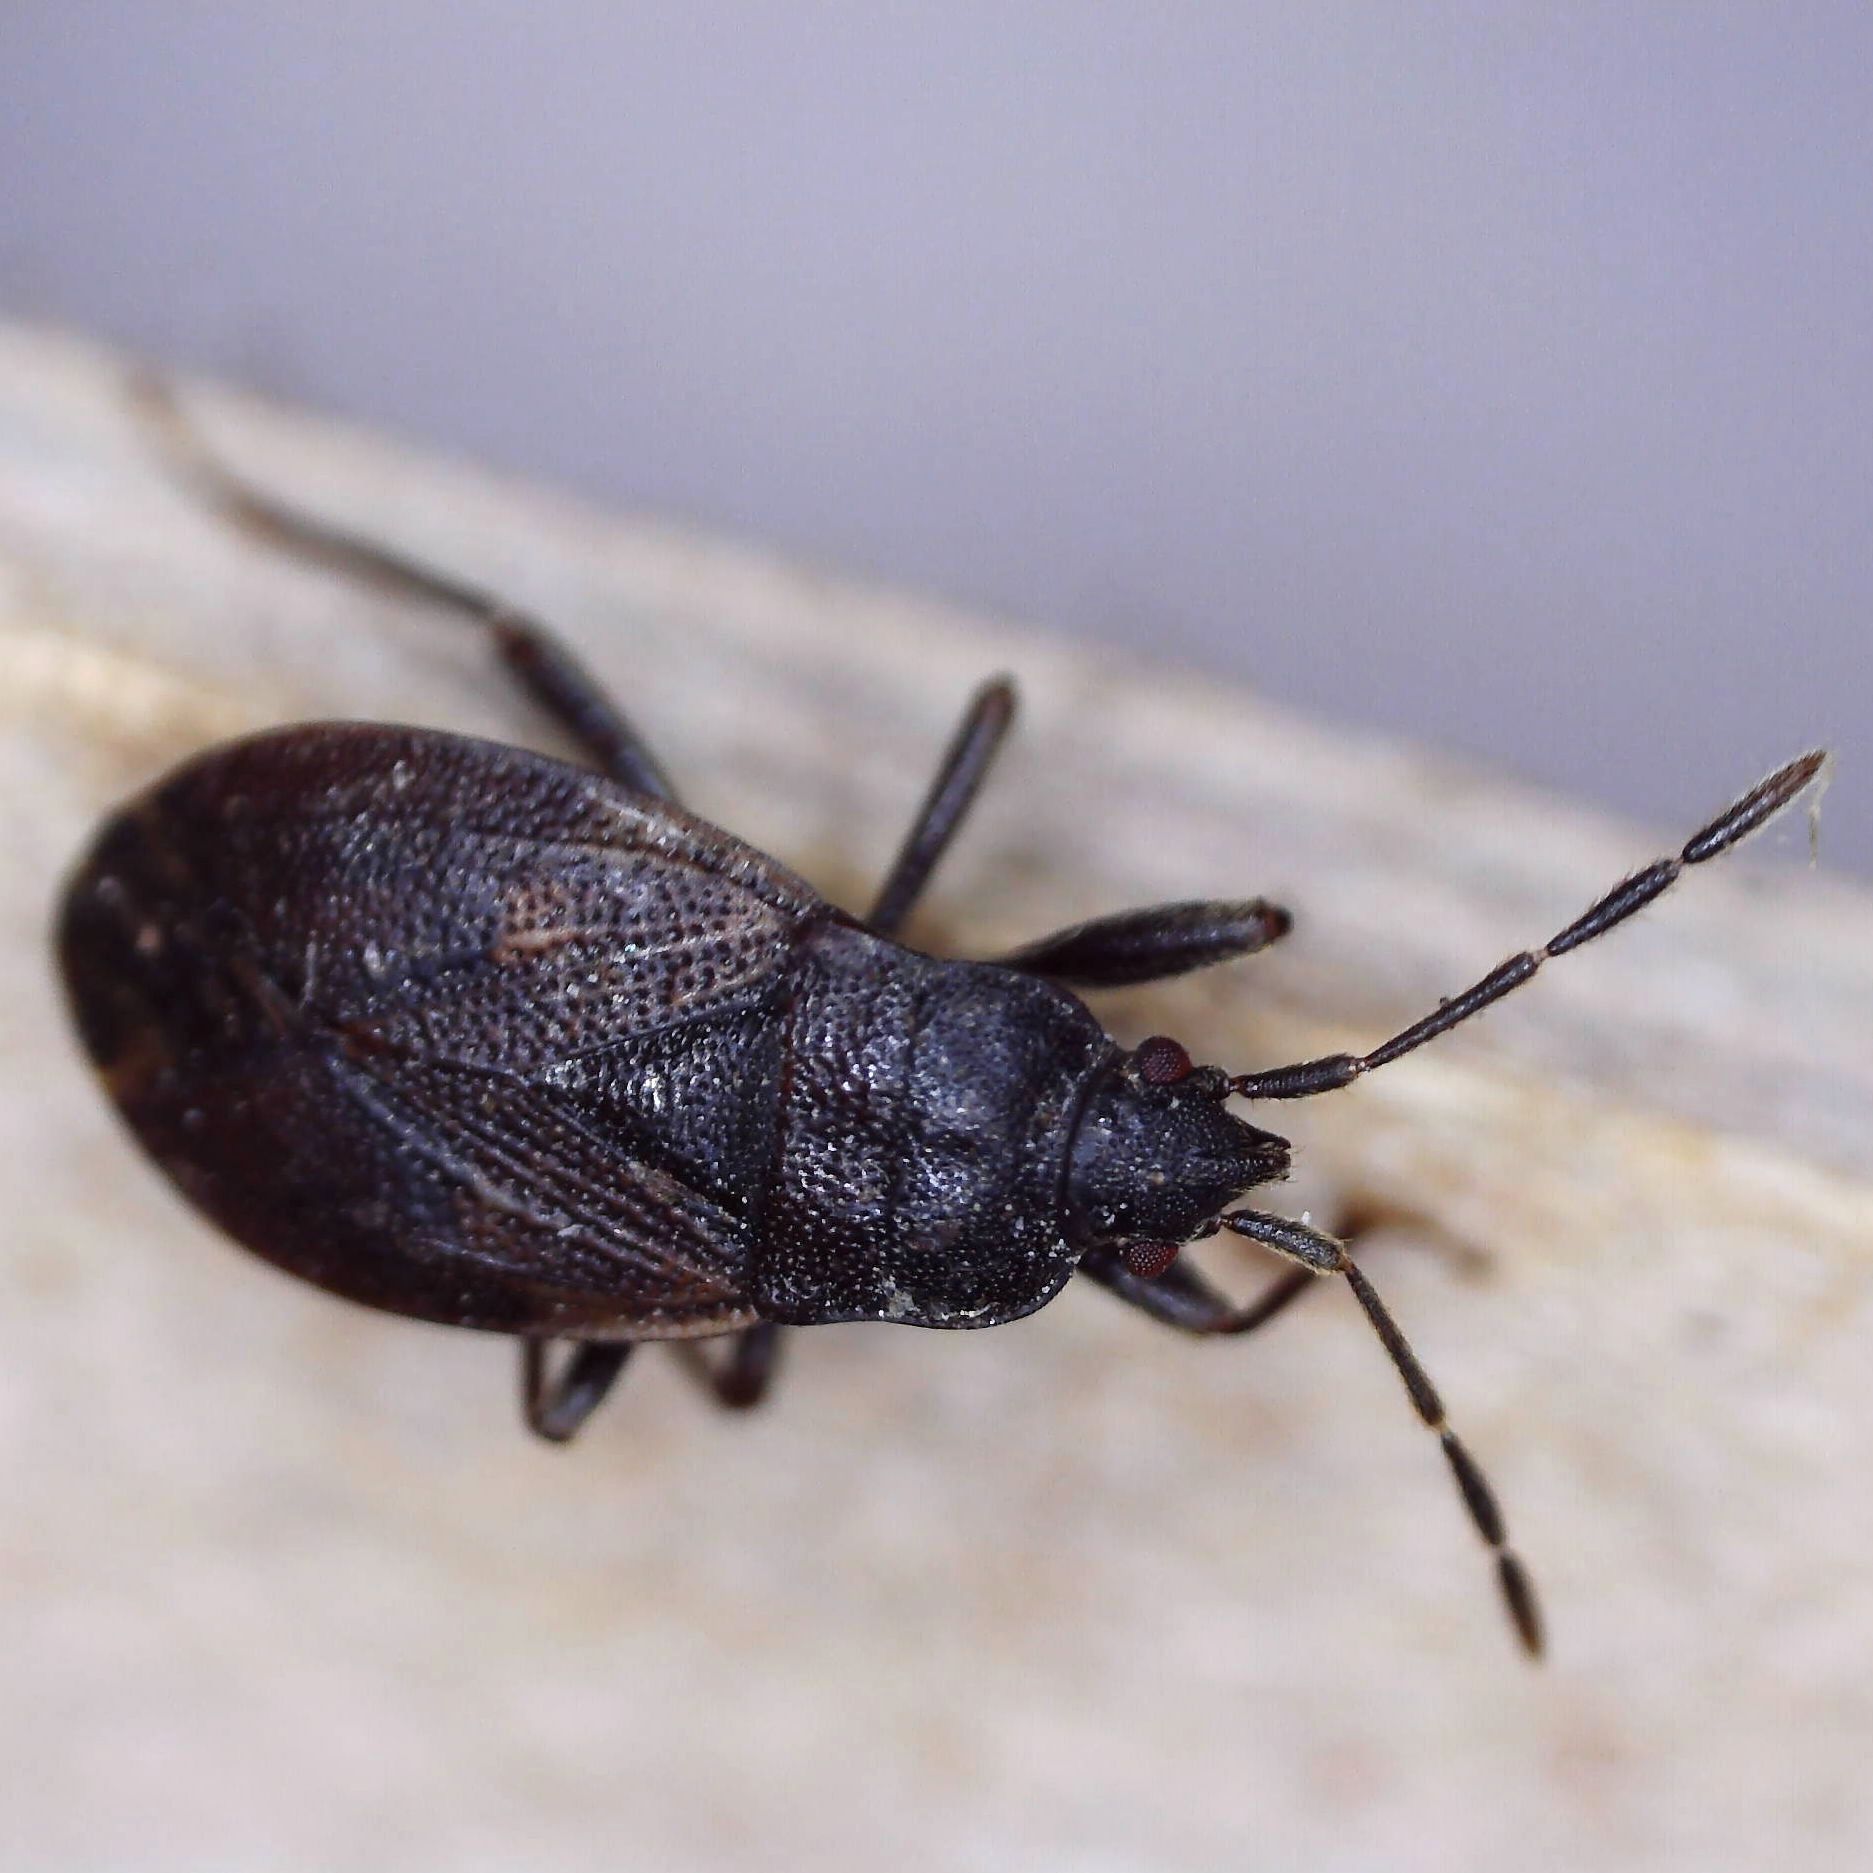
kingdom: Animalia
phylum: Arthropoda
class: Insecta
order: Hemiptera
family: Rhyparochromidae
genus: Drymus
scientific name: Drymus brunneus
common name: Seed bug
